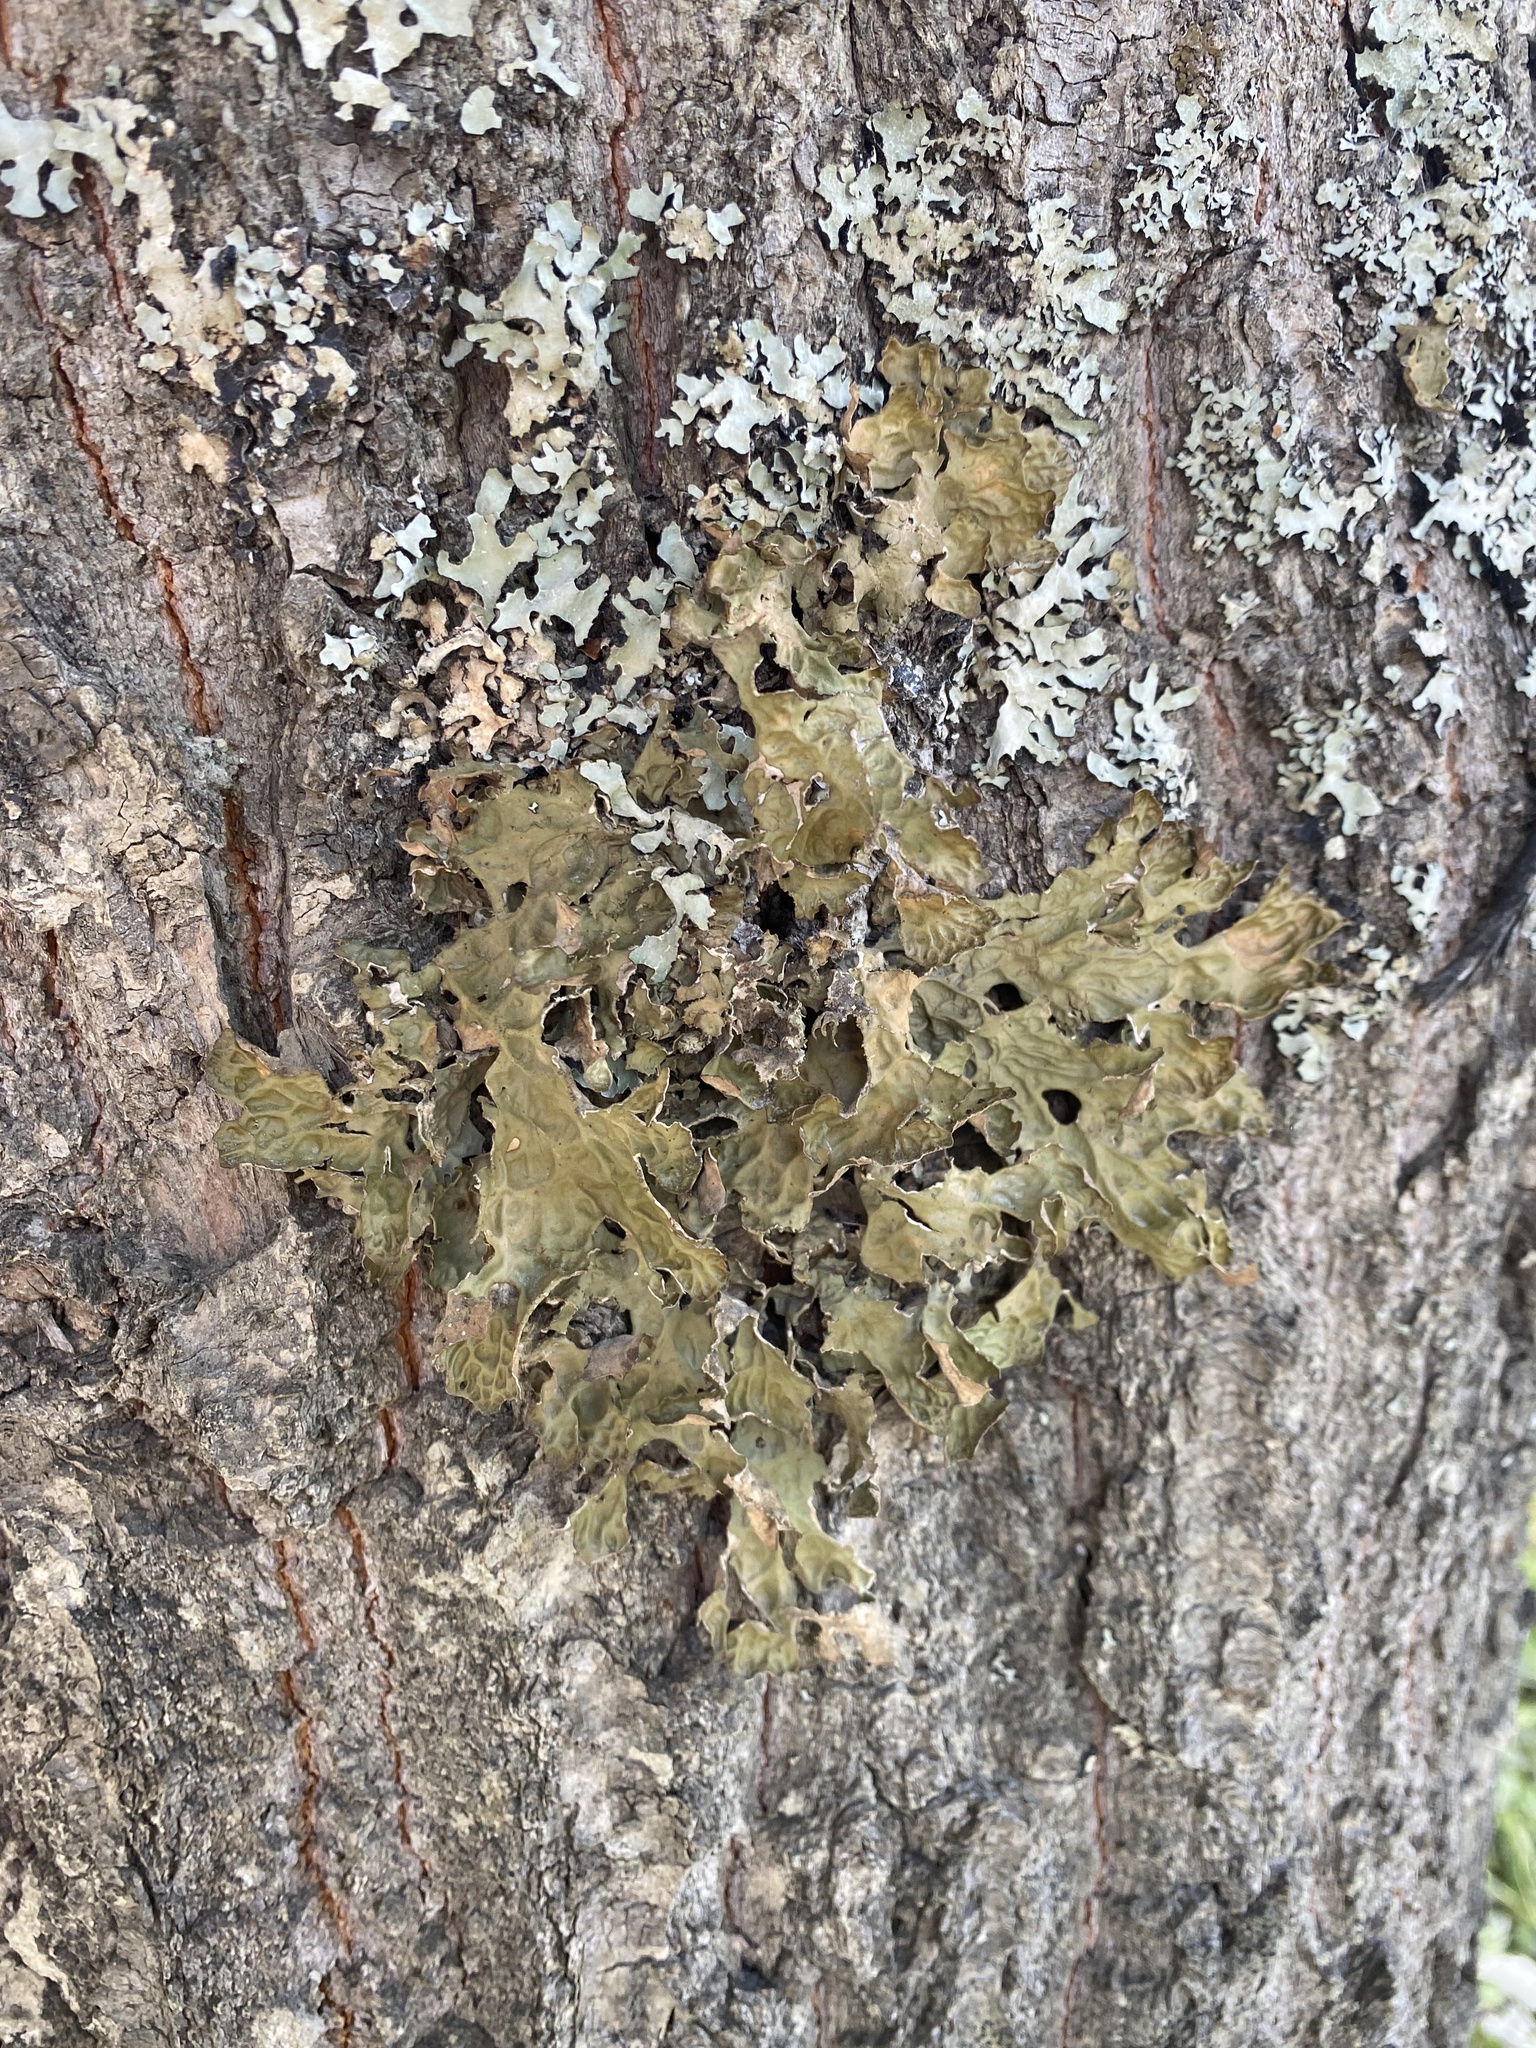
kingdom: Fungi
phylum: Ascomycota
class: Lecanoromycetes
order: Peltigerales
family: Lobariaceae
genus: Lobaria
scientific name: Lobaria pulmonaria
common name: Lungwort
